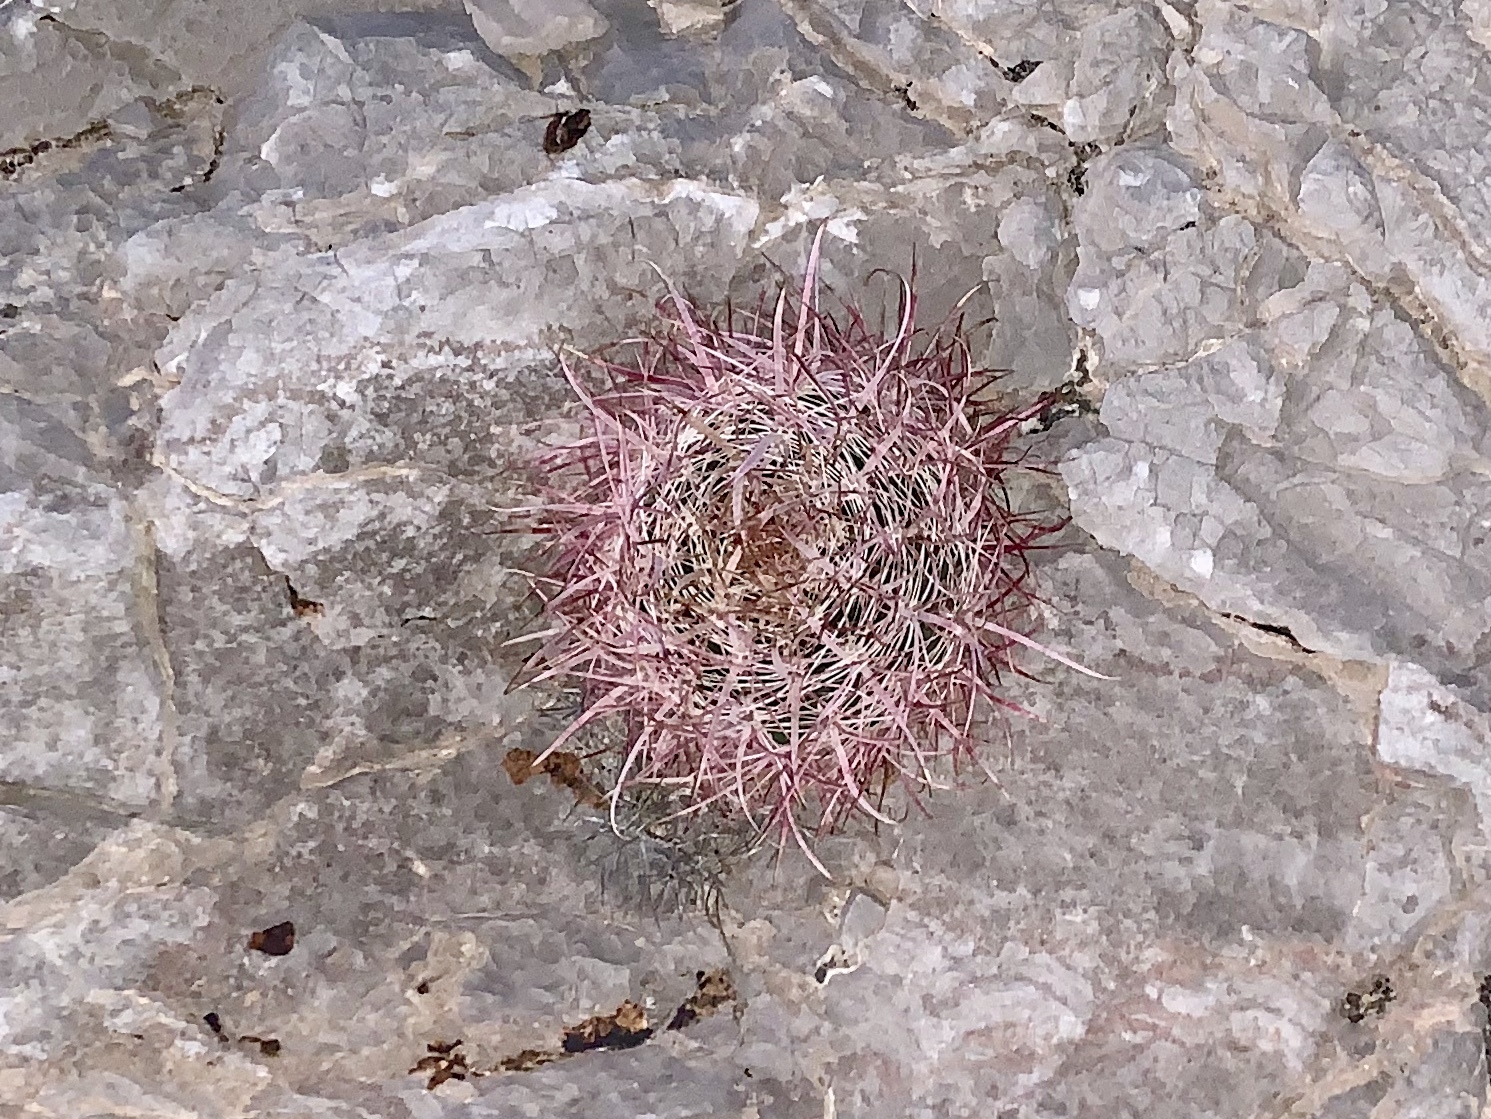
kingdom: Plantae
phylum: Tracheophyta
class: Magnoliopsida
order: Caryophyllales
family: Cactaceae
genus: Ferocactus
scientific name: Ferocactus cylindraceus
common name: California barrel cactus
